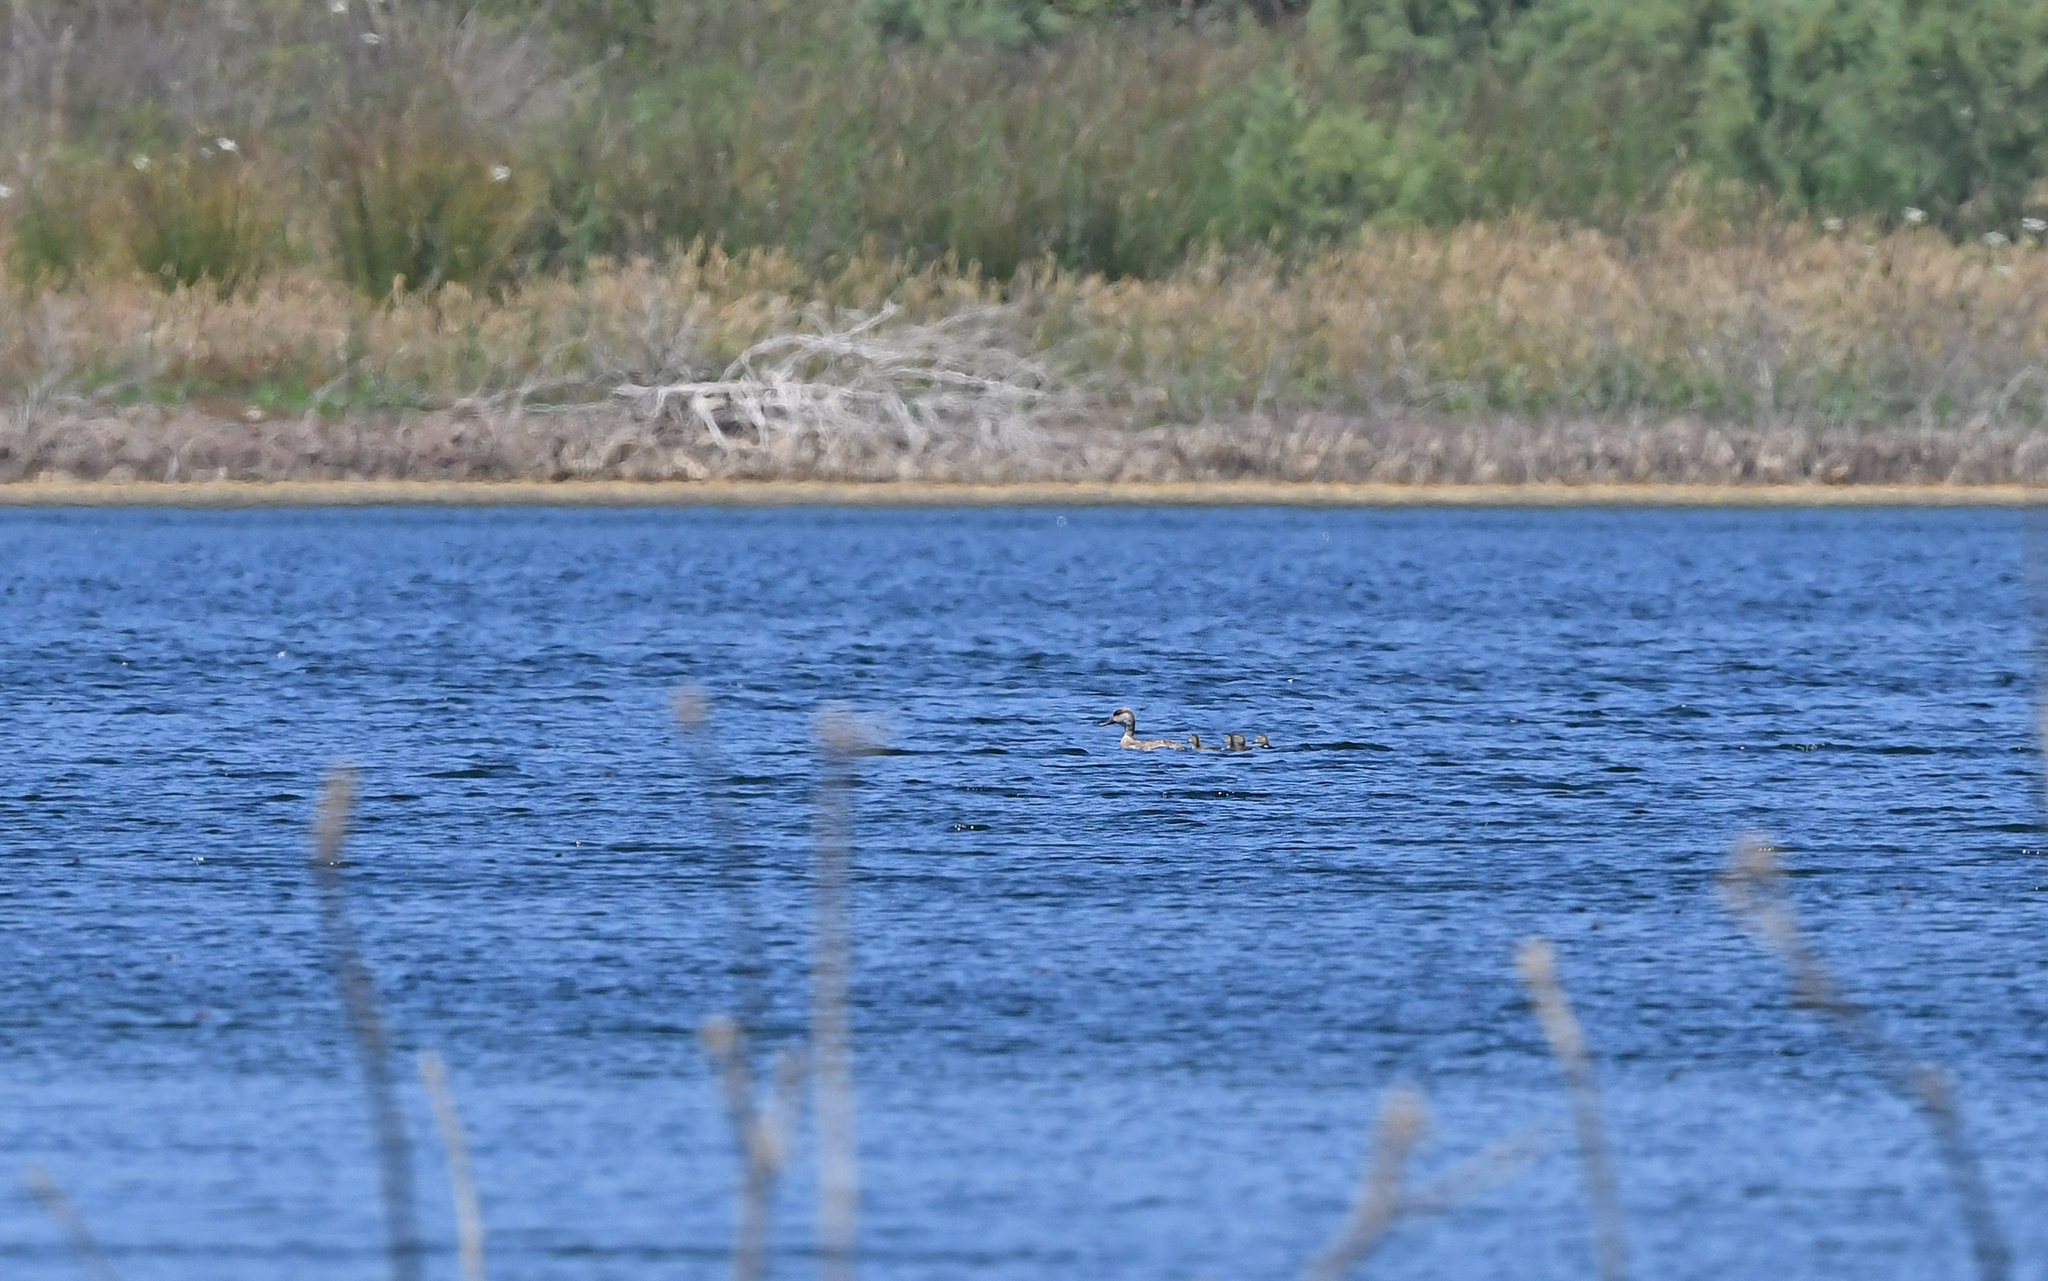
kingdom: Animalia
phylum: Chordata
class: Aves
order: Anseriformes
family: Anatidae
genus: Netta
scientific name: Netta rufina
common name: Red-crested pochard
